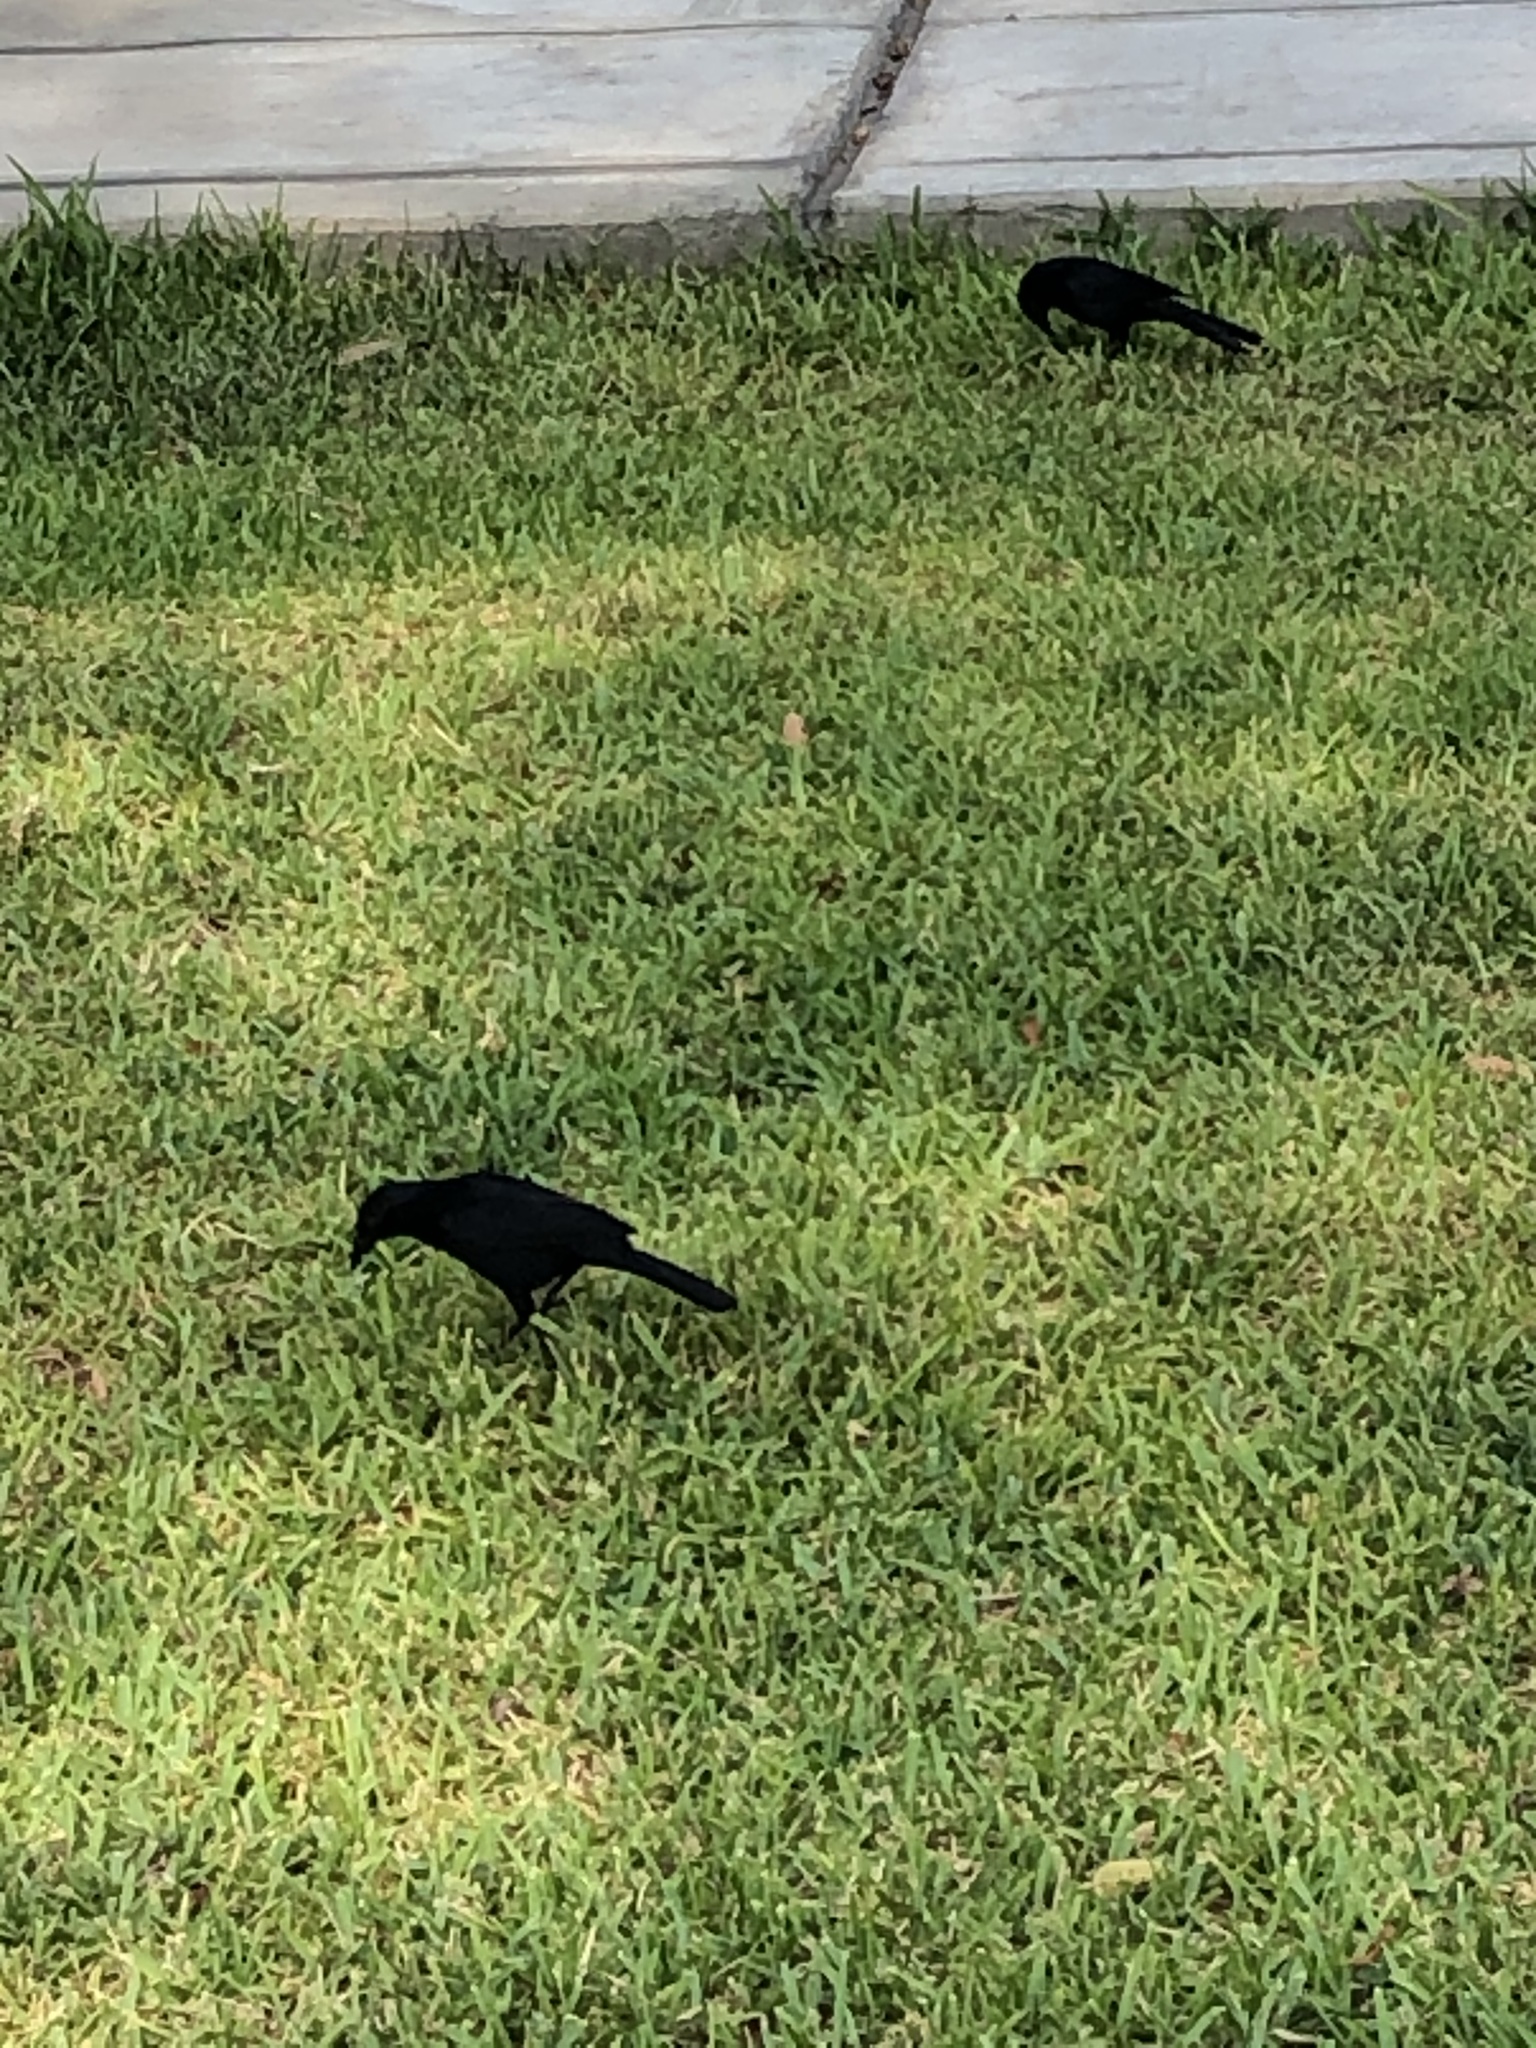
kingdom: Animalia
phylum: Chordata
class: Aves
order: Passeriformes
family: Icteridae
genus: Dives
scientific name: Dives warczewiczi
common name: Scrub blackbird
